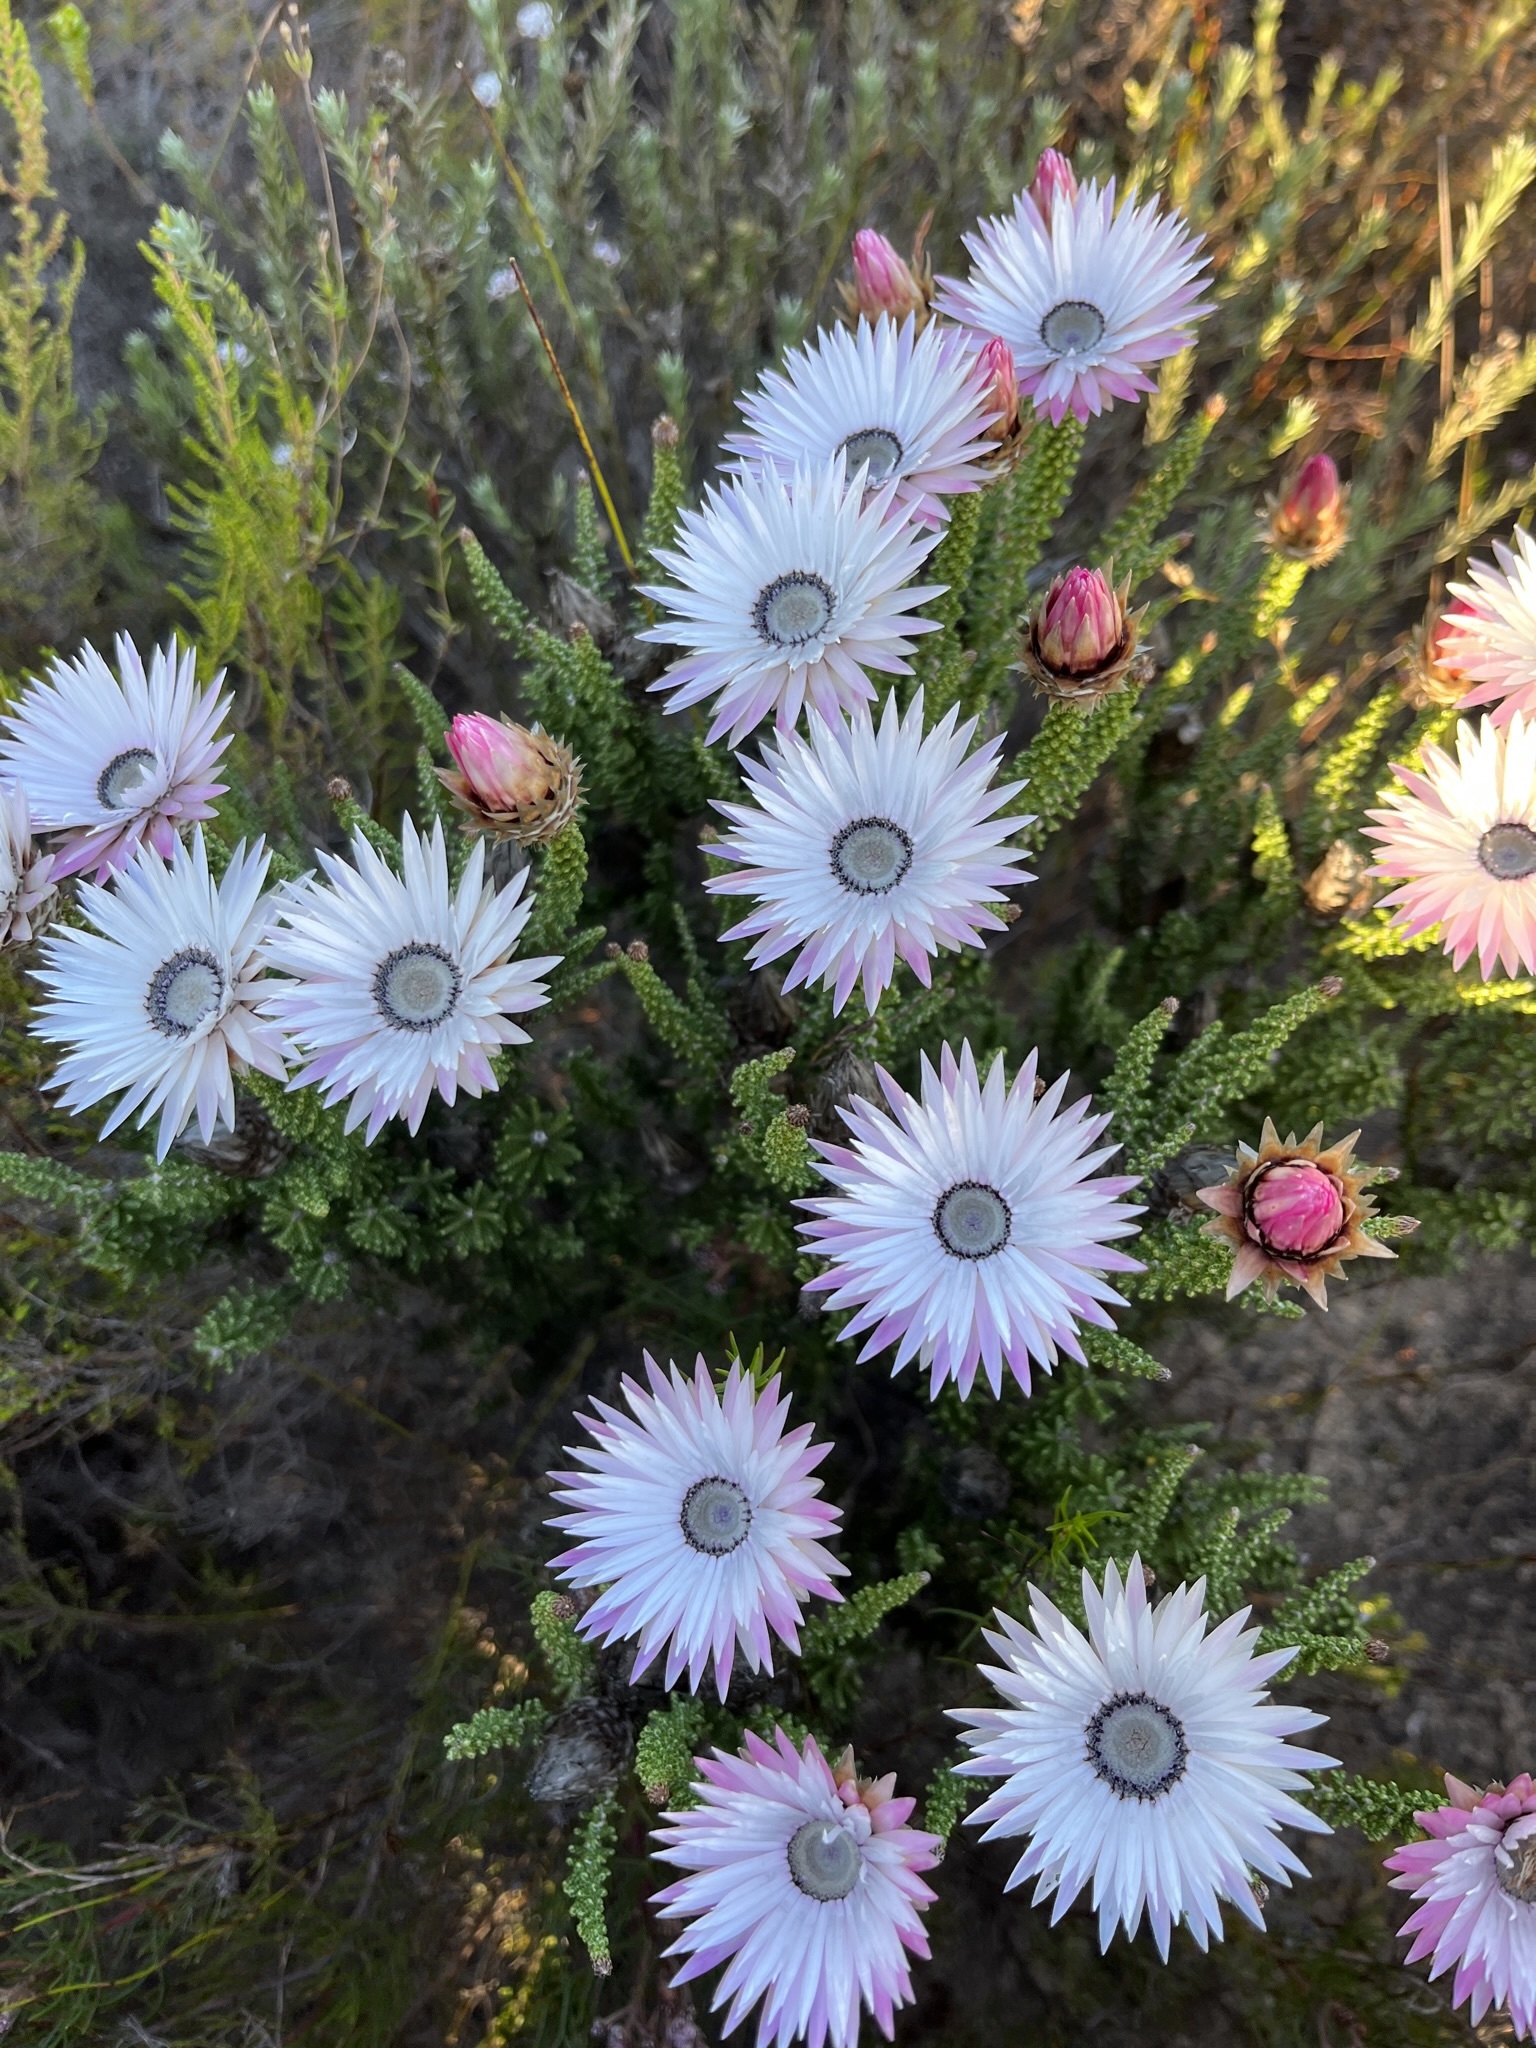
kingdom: Plantae
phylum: Tracheophyta
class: Magnoliopsida
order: Asterales
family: Asteraceae
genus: Phaenocoma
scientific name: Phaenocoma prolifera
